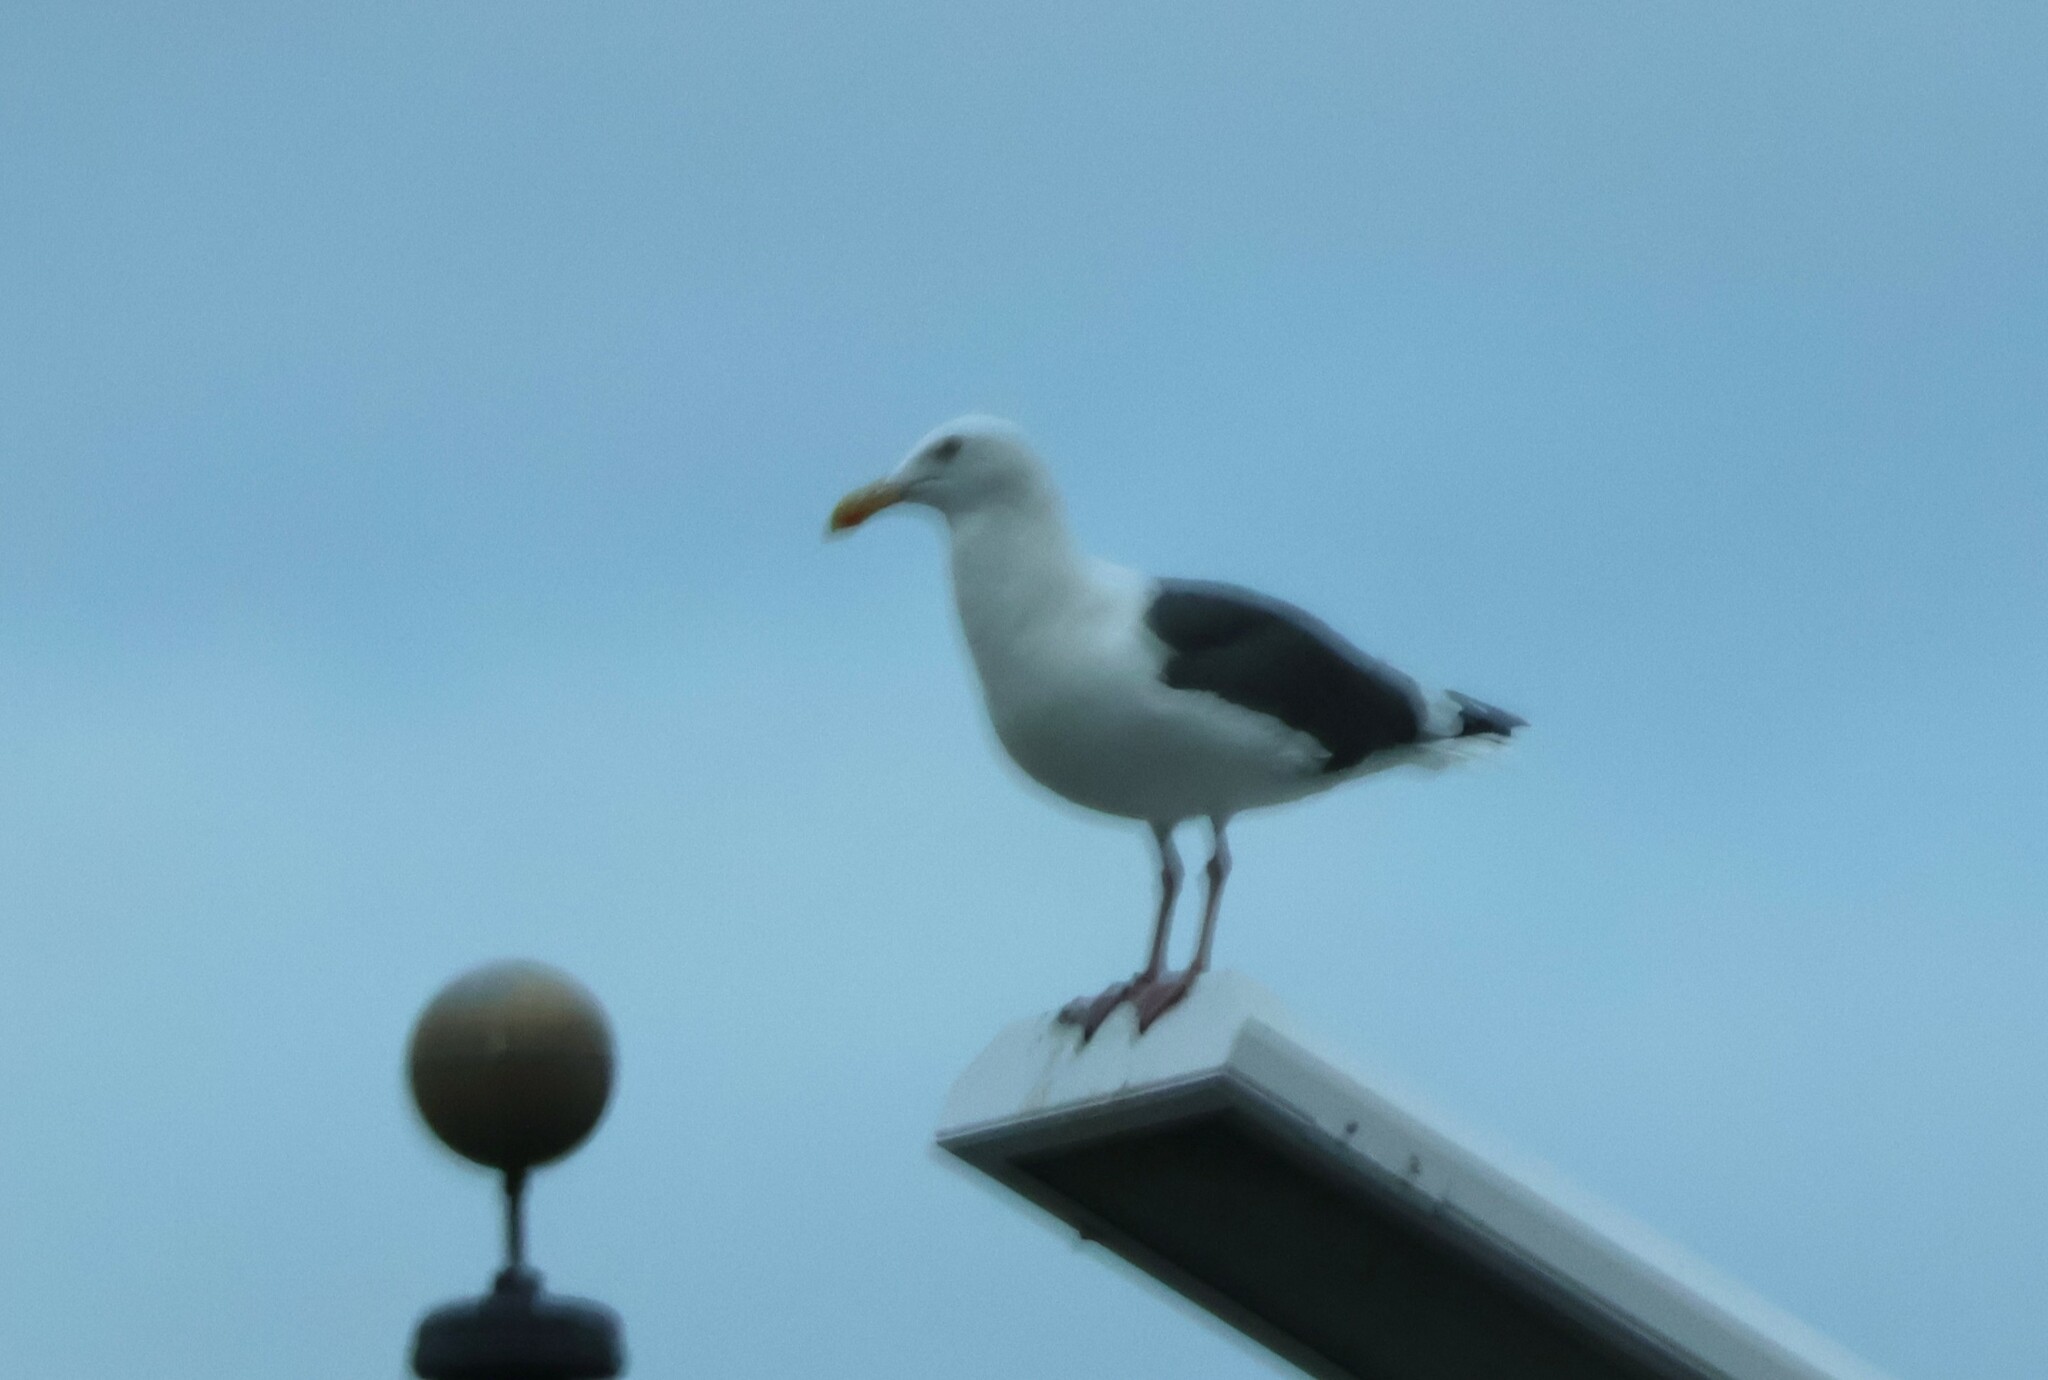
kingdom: Animalia
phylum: Chordata
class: Aves
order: Charadriiformes
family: Laridae
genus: Larus
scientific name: Larus occidentalis
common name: Western gull
